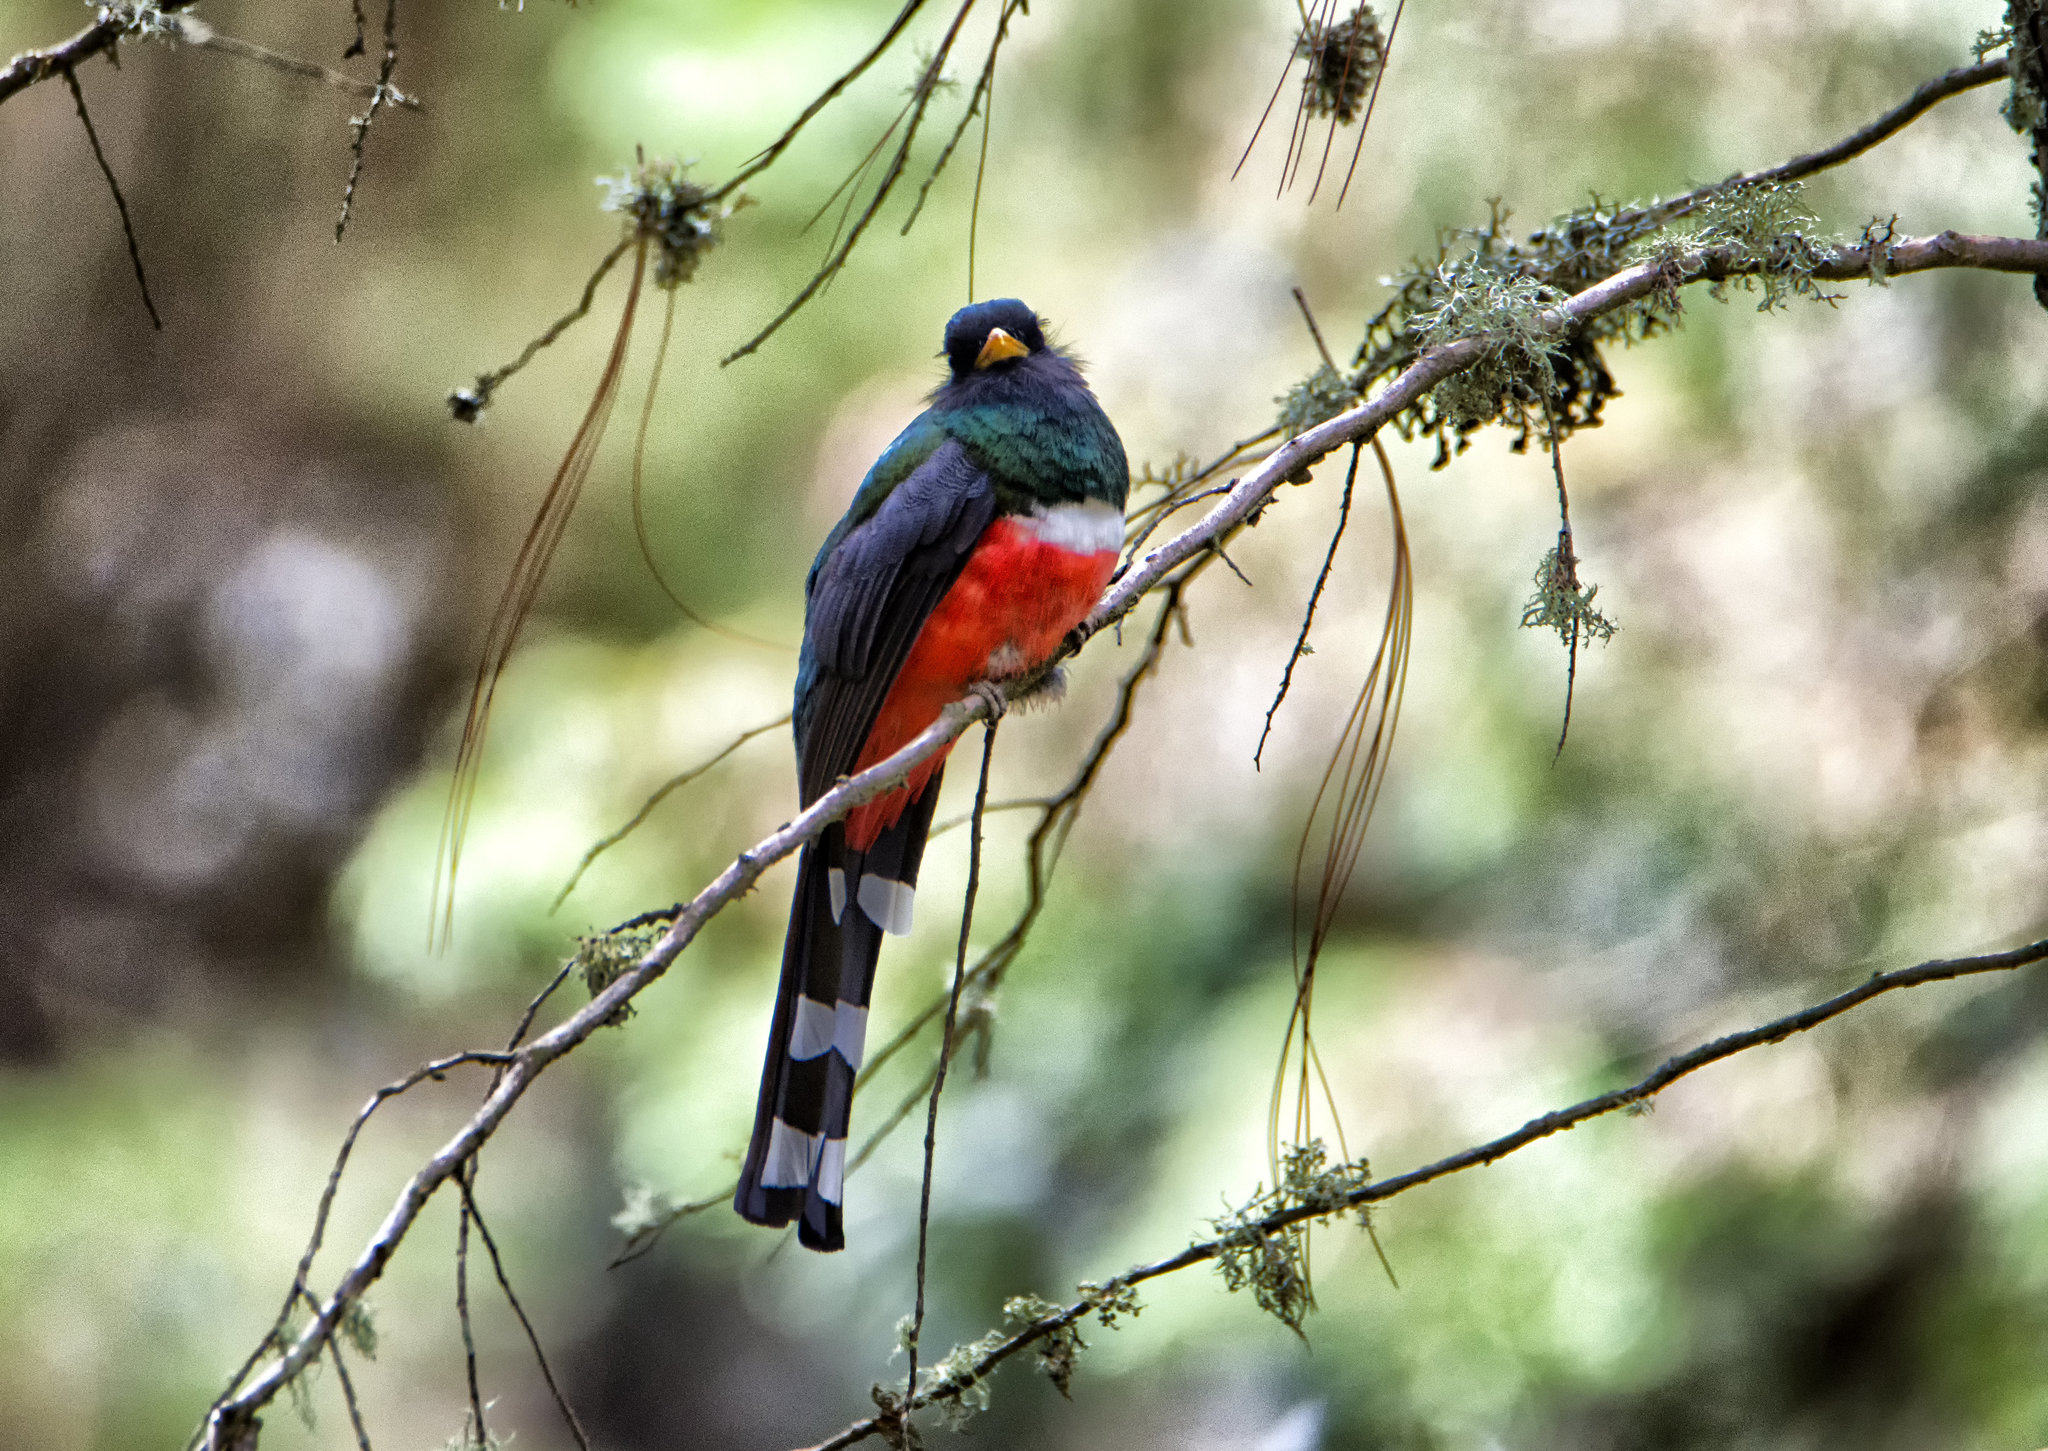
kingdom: Animalia
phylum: Chordata
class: Aves
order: Trogoniformes
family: Trogonidae
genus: Trogon
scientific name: Trogon mexicanus
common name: Mountain trogon
